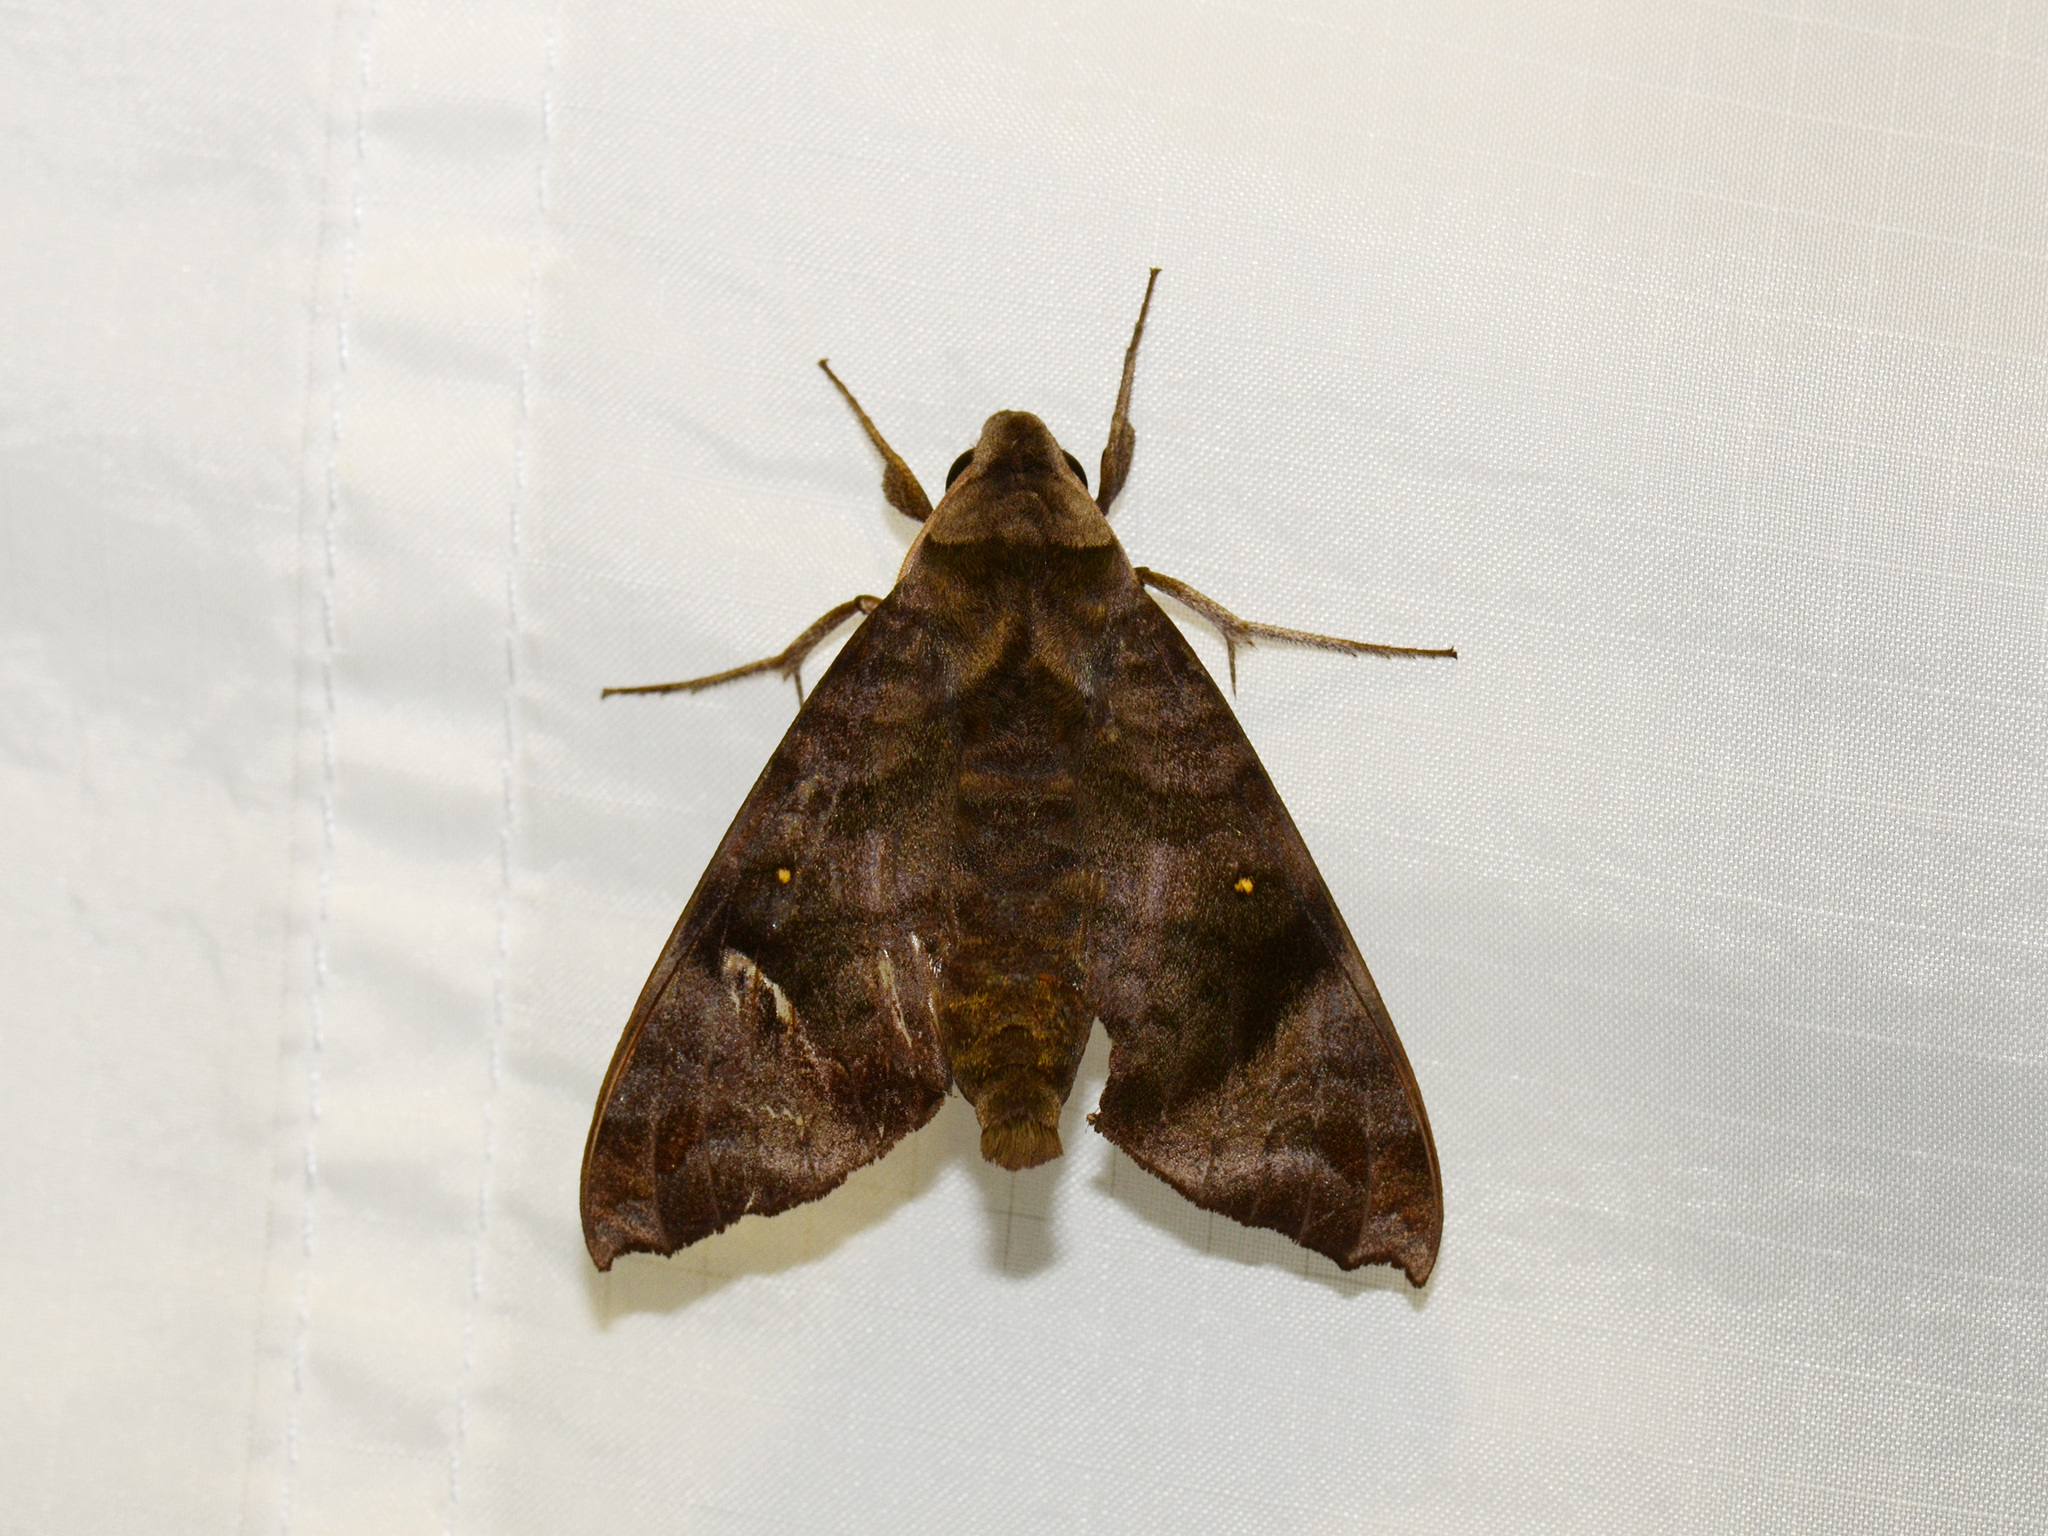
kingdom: Animalia
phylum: Arthropoda
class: Insecta
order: Lepidoptera
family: Sphingidae
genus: Acosmeryx
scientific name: Acosmeryx socrates
